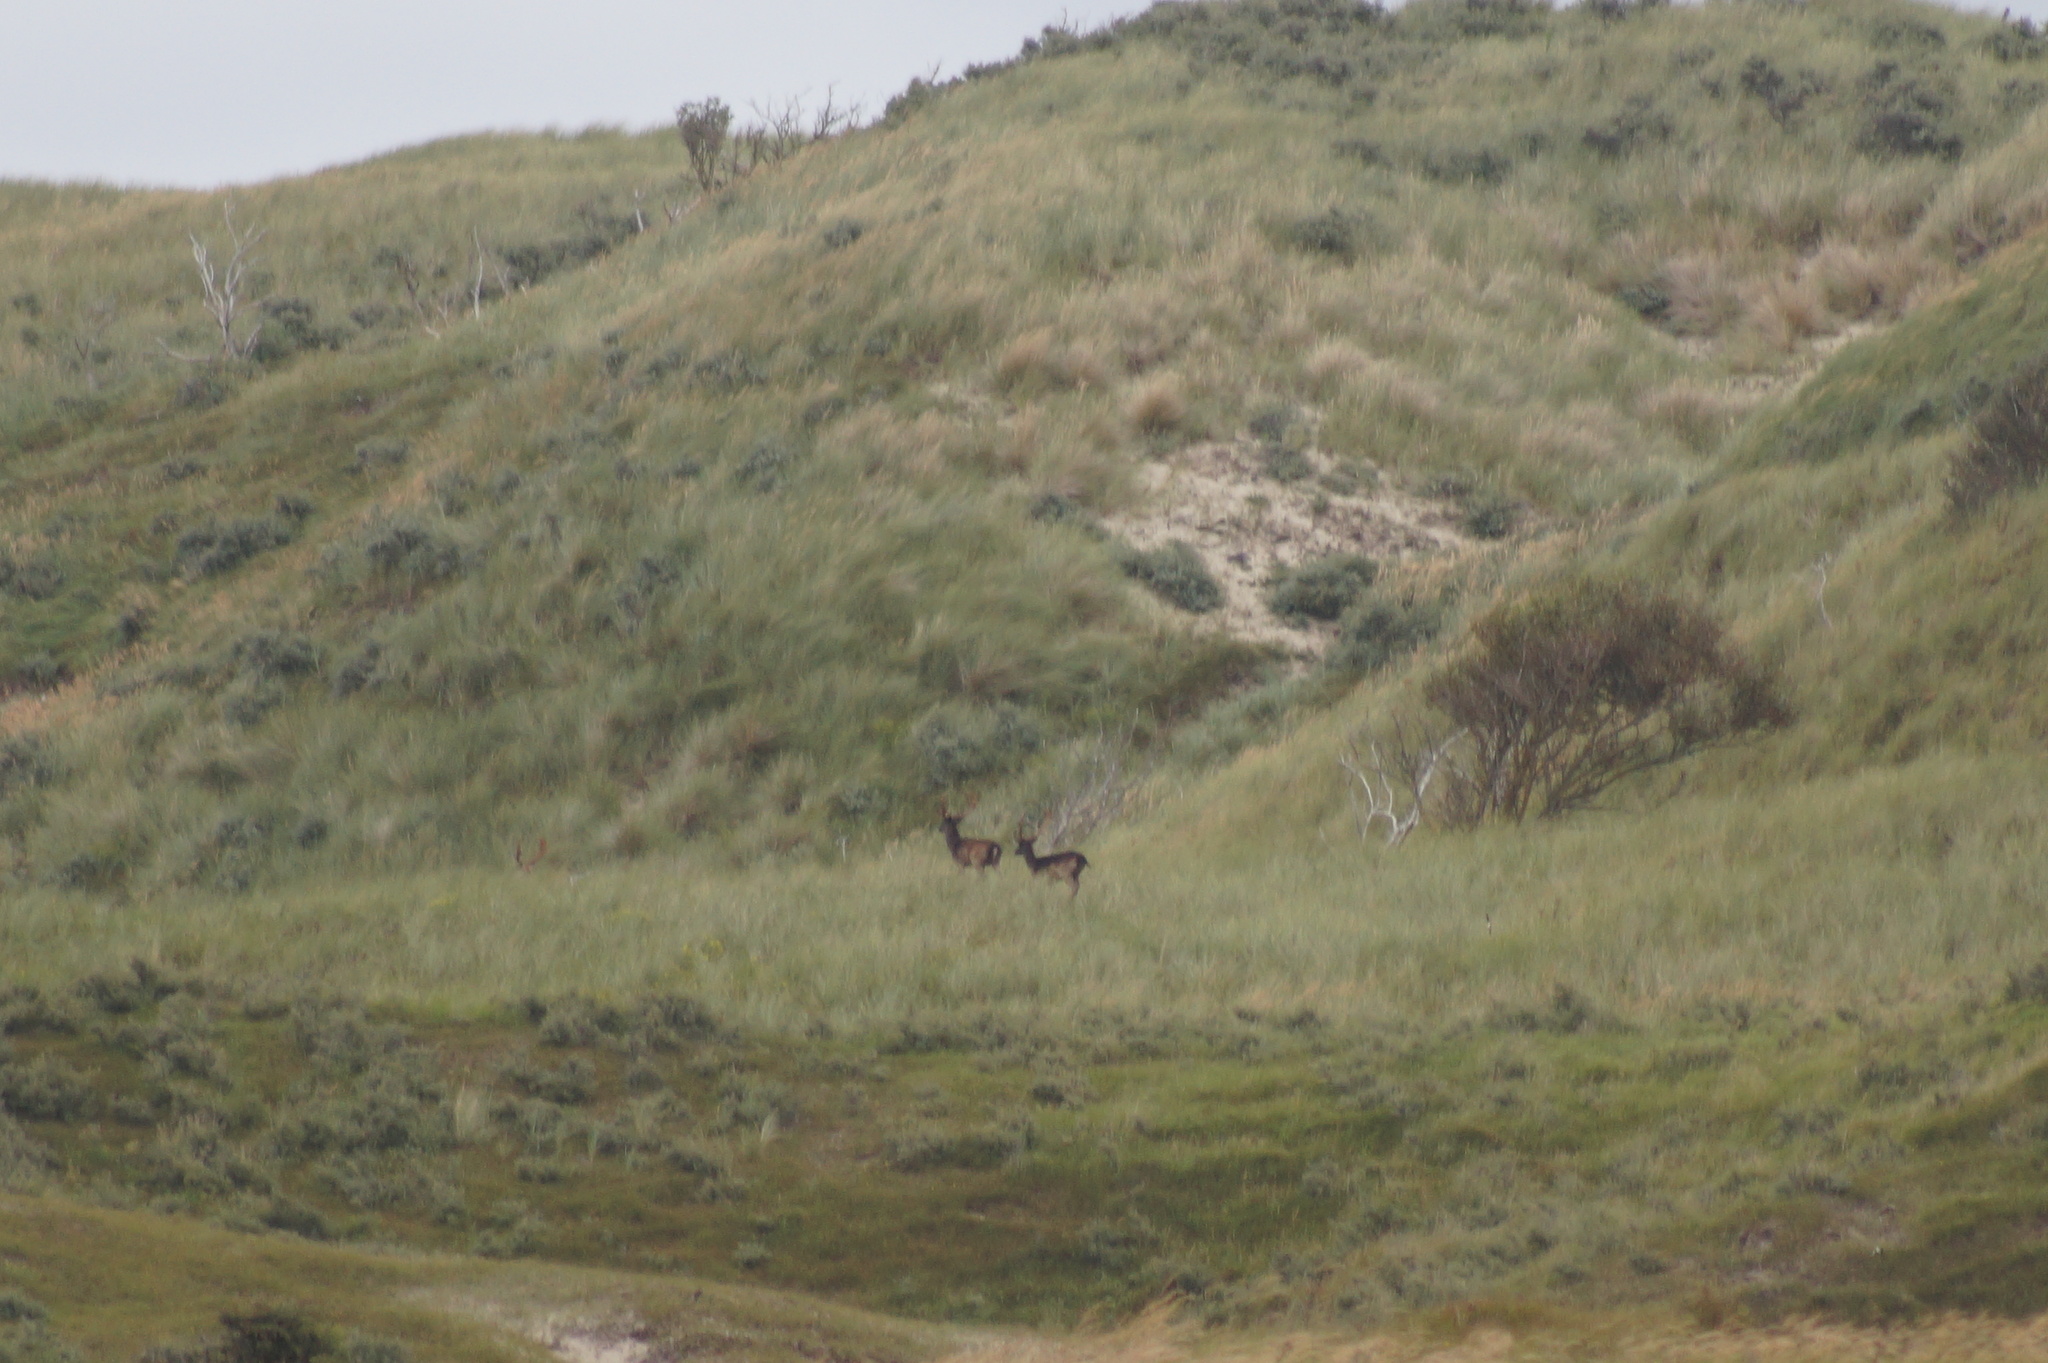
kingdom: Animalia
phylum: Chordata
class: Mammalia
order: Artiodactyla
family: Cervidae
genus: Dama
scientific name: Dama dama
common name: Fallow deer
